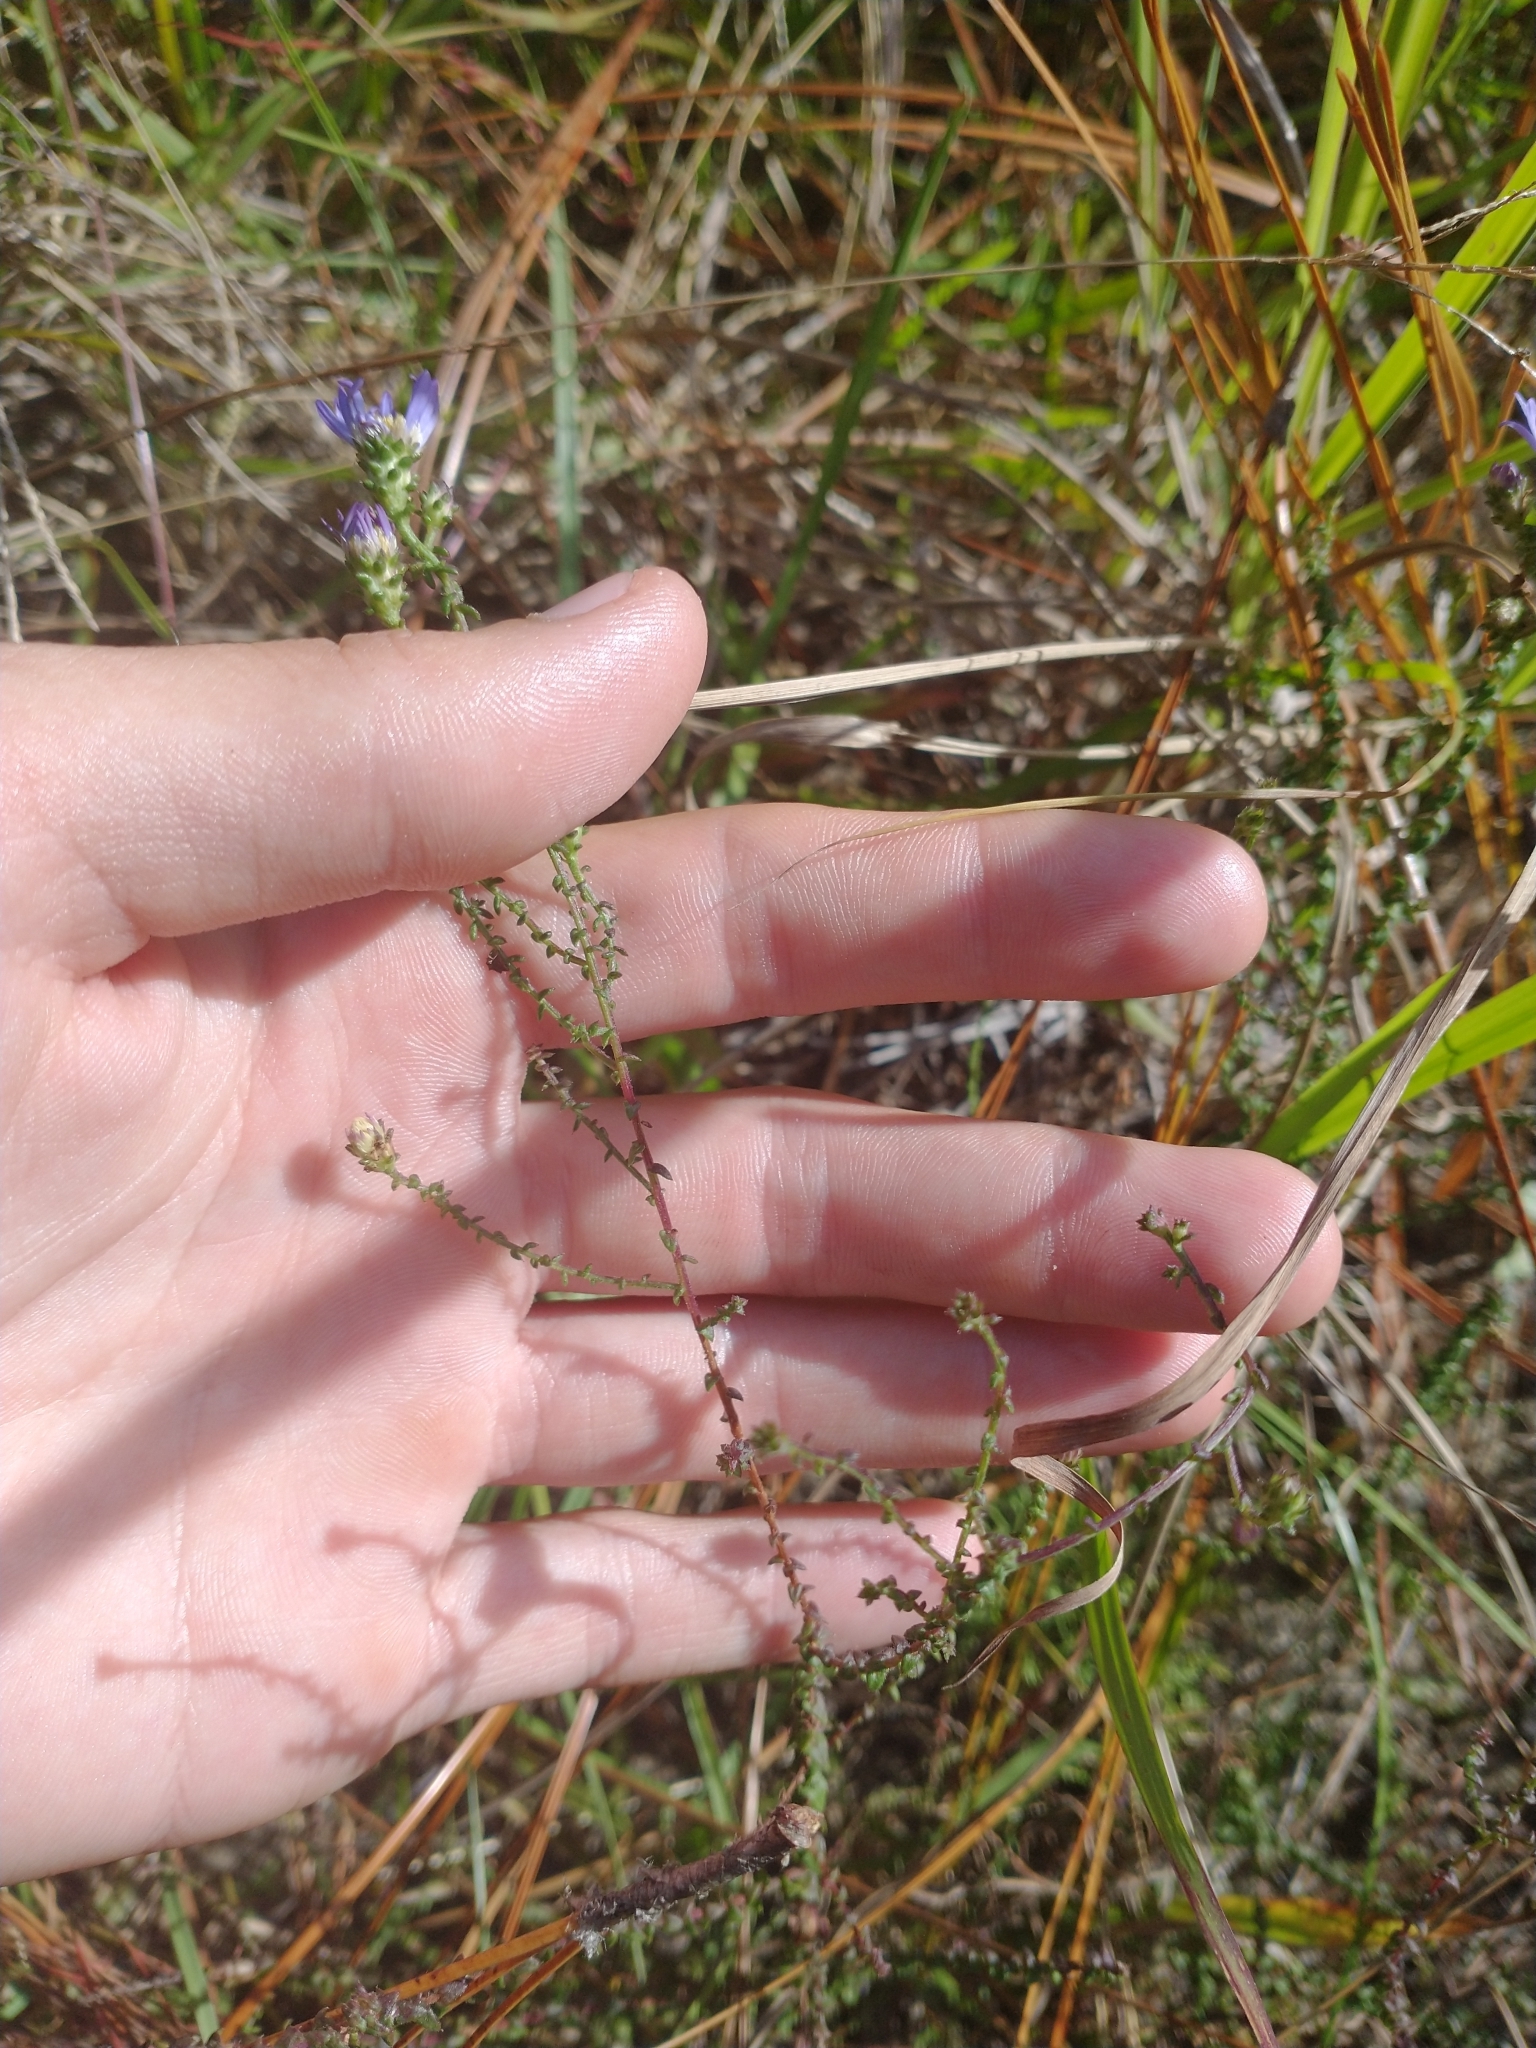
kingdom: Plantae
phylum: Tracheophyta
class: Magnoliopsida
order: Asterales
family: Asteraceae
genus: Symphyotrichum
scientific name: Symphyotrichum walteri
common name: Walter's aster
